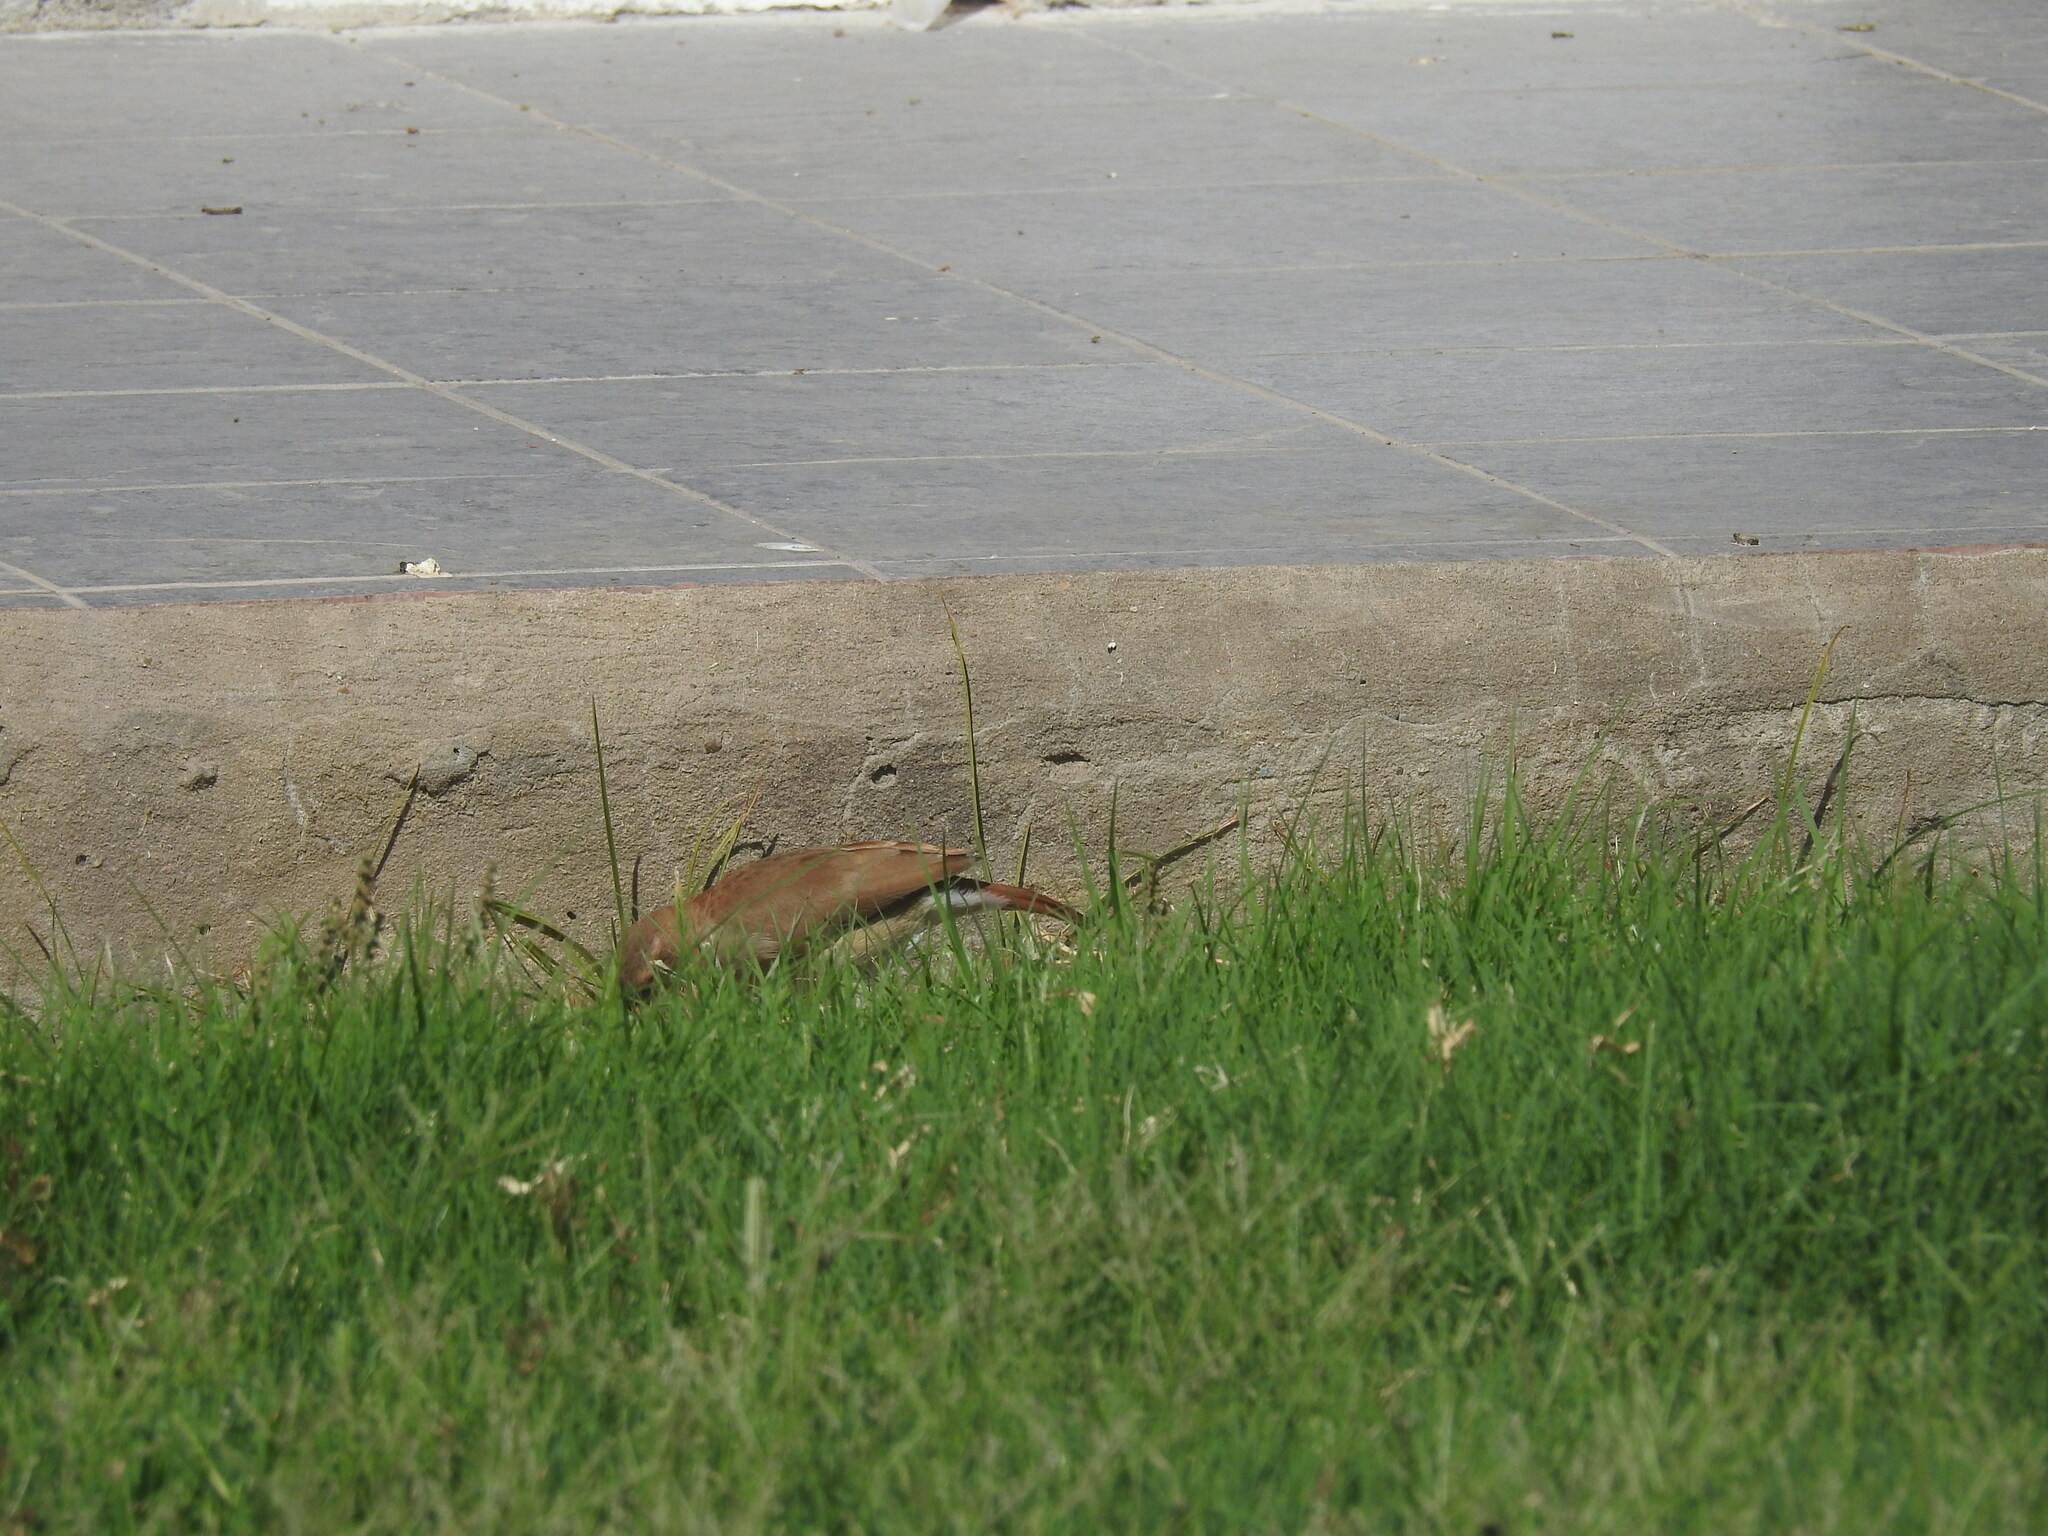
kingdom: Animalia
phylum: Chordata
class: Aves
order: Passeriformes
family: Furnariidae
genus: Furnarius
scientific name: Furnarius rufus
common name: Rufous hornero
